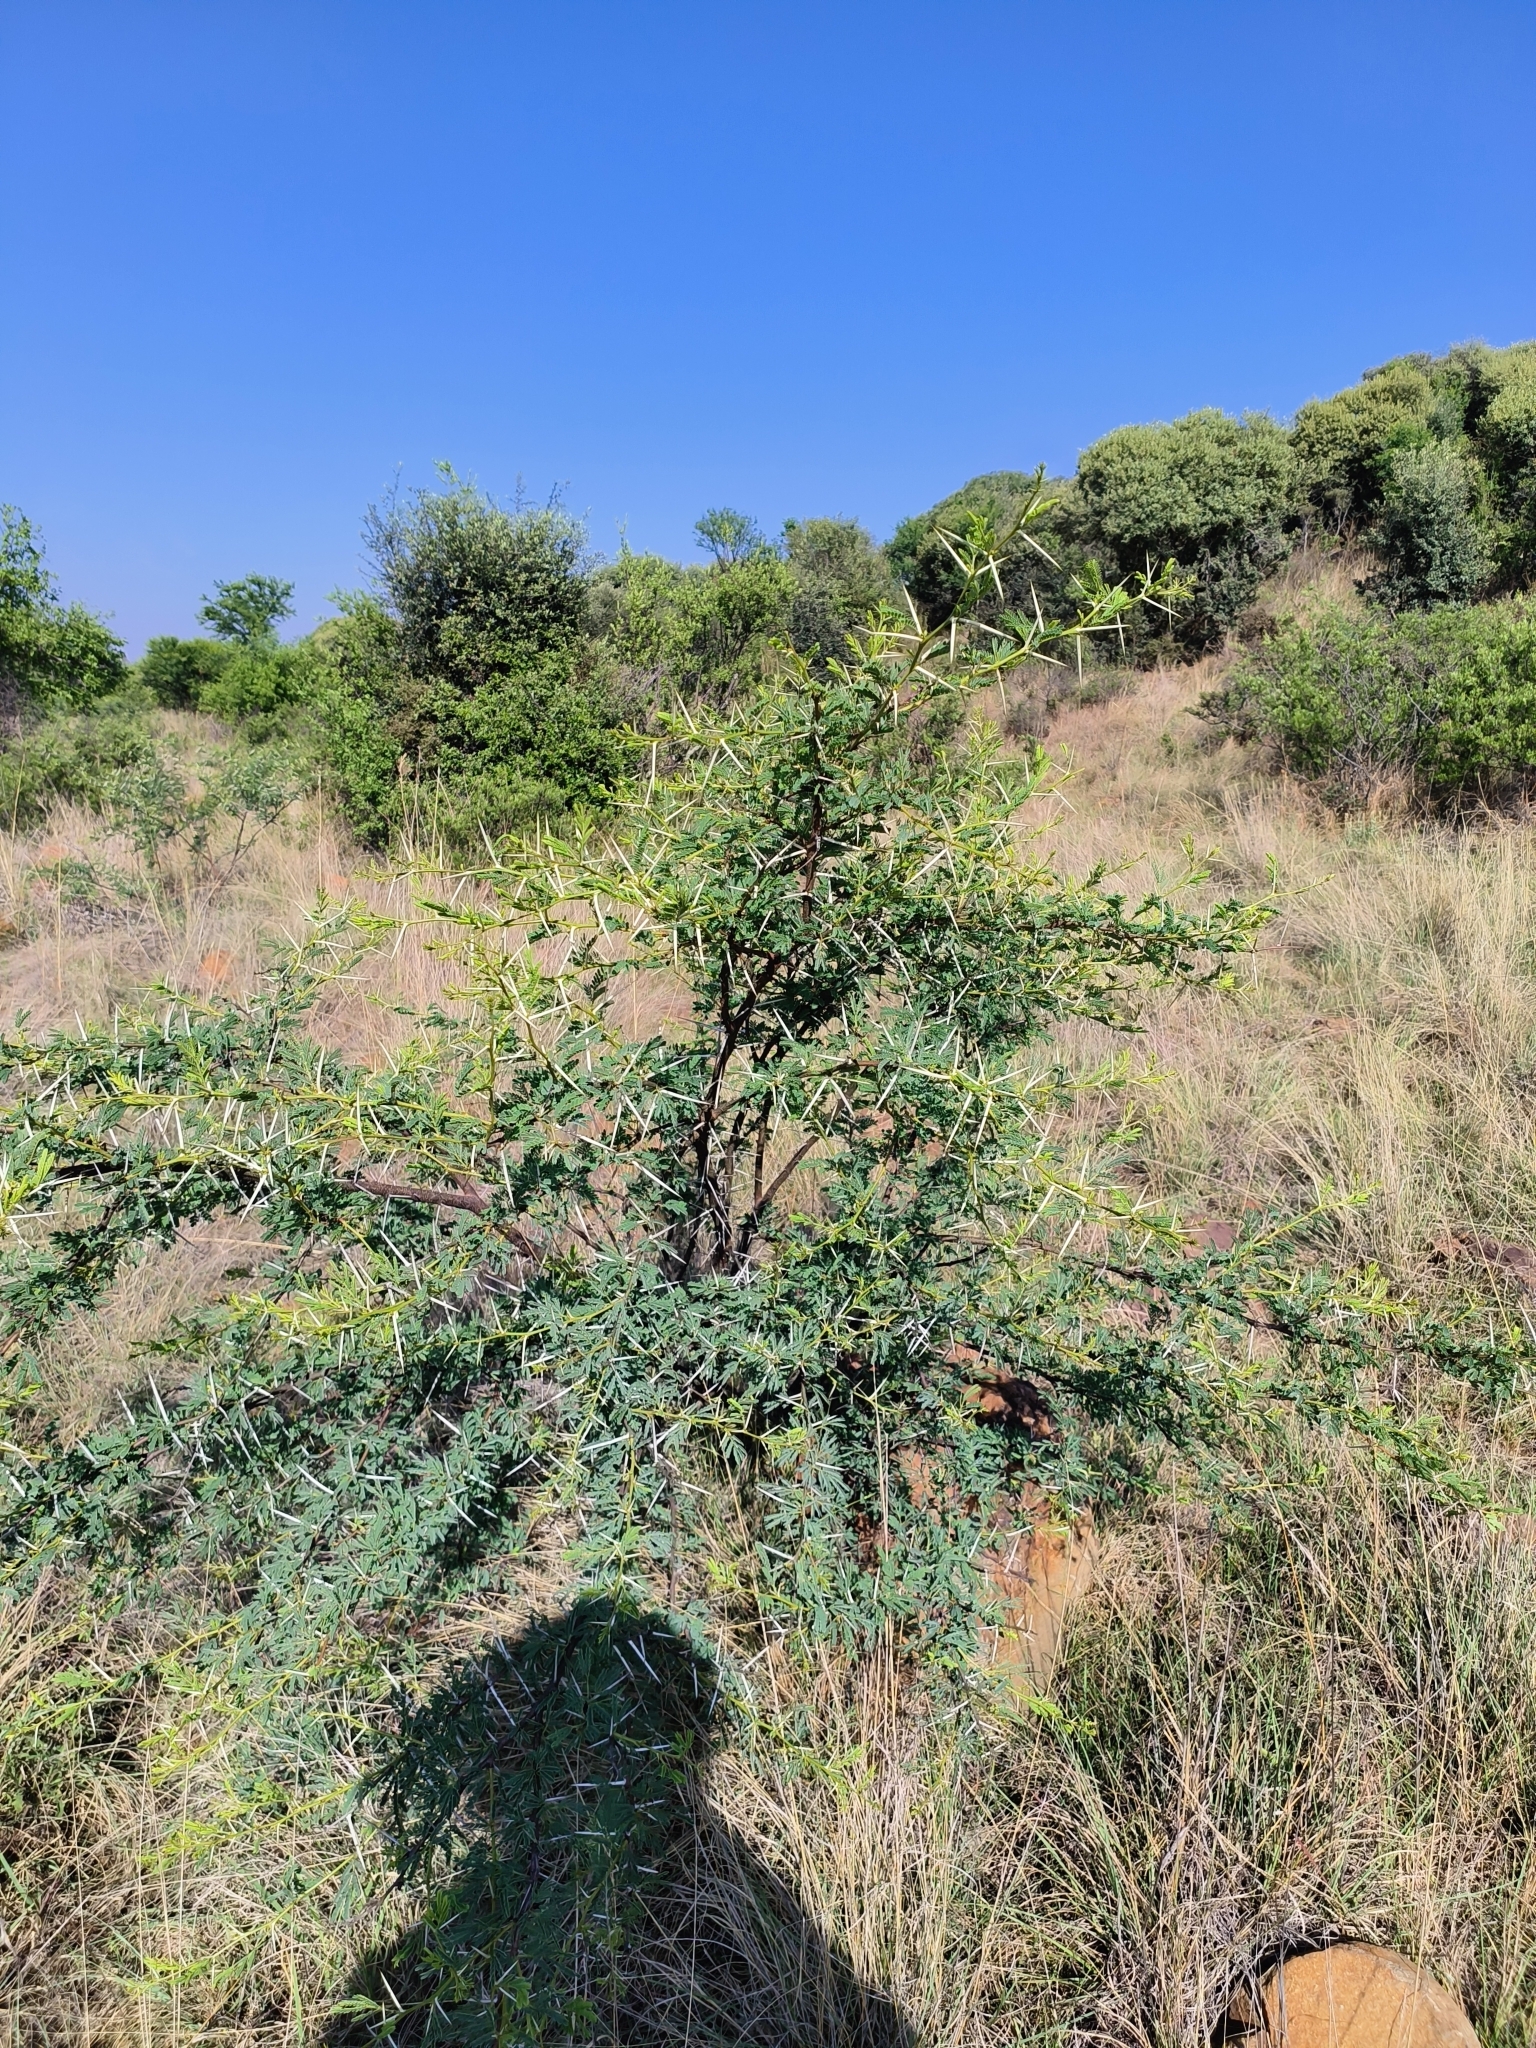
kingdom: Plantae
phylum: Tracheophyta
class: Magnoliopsida
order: Fabales
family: Fabaceae
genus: Vachellia
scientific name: Vachellia karroo
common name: Sweet thorn
